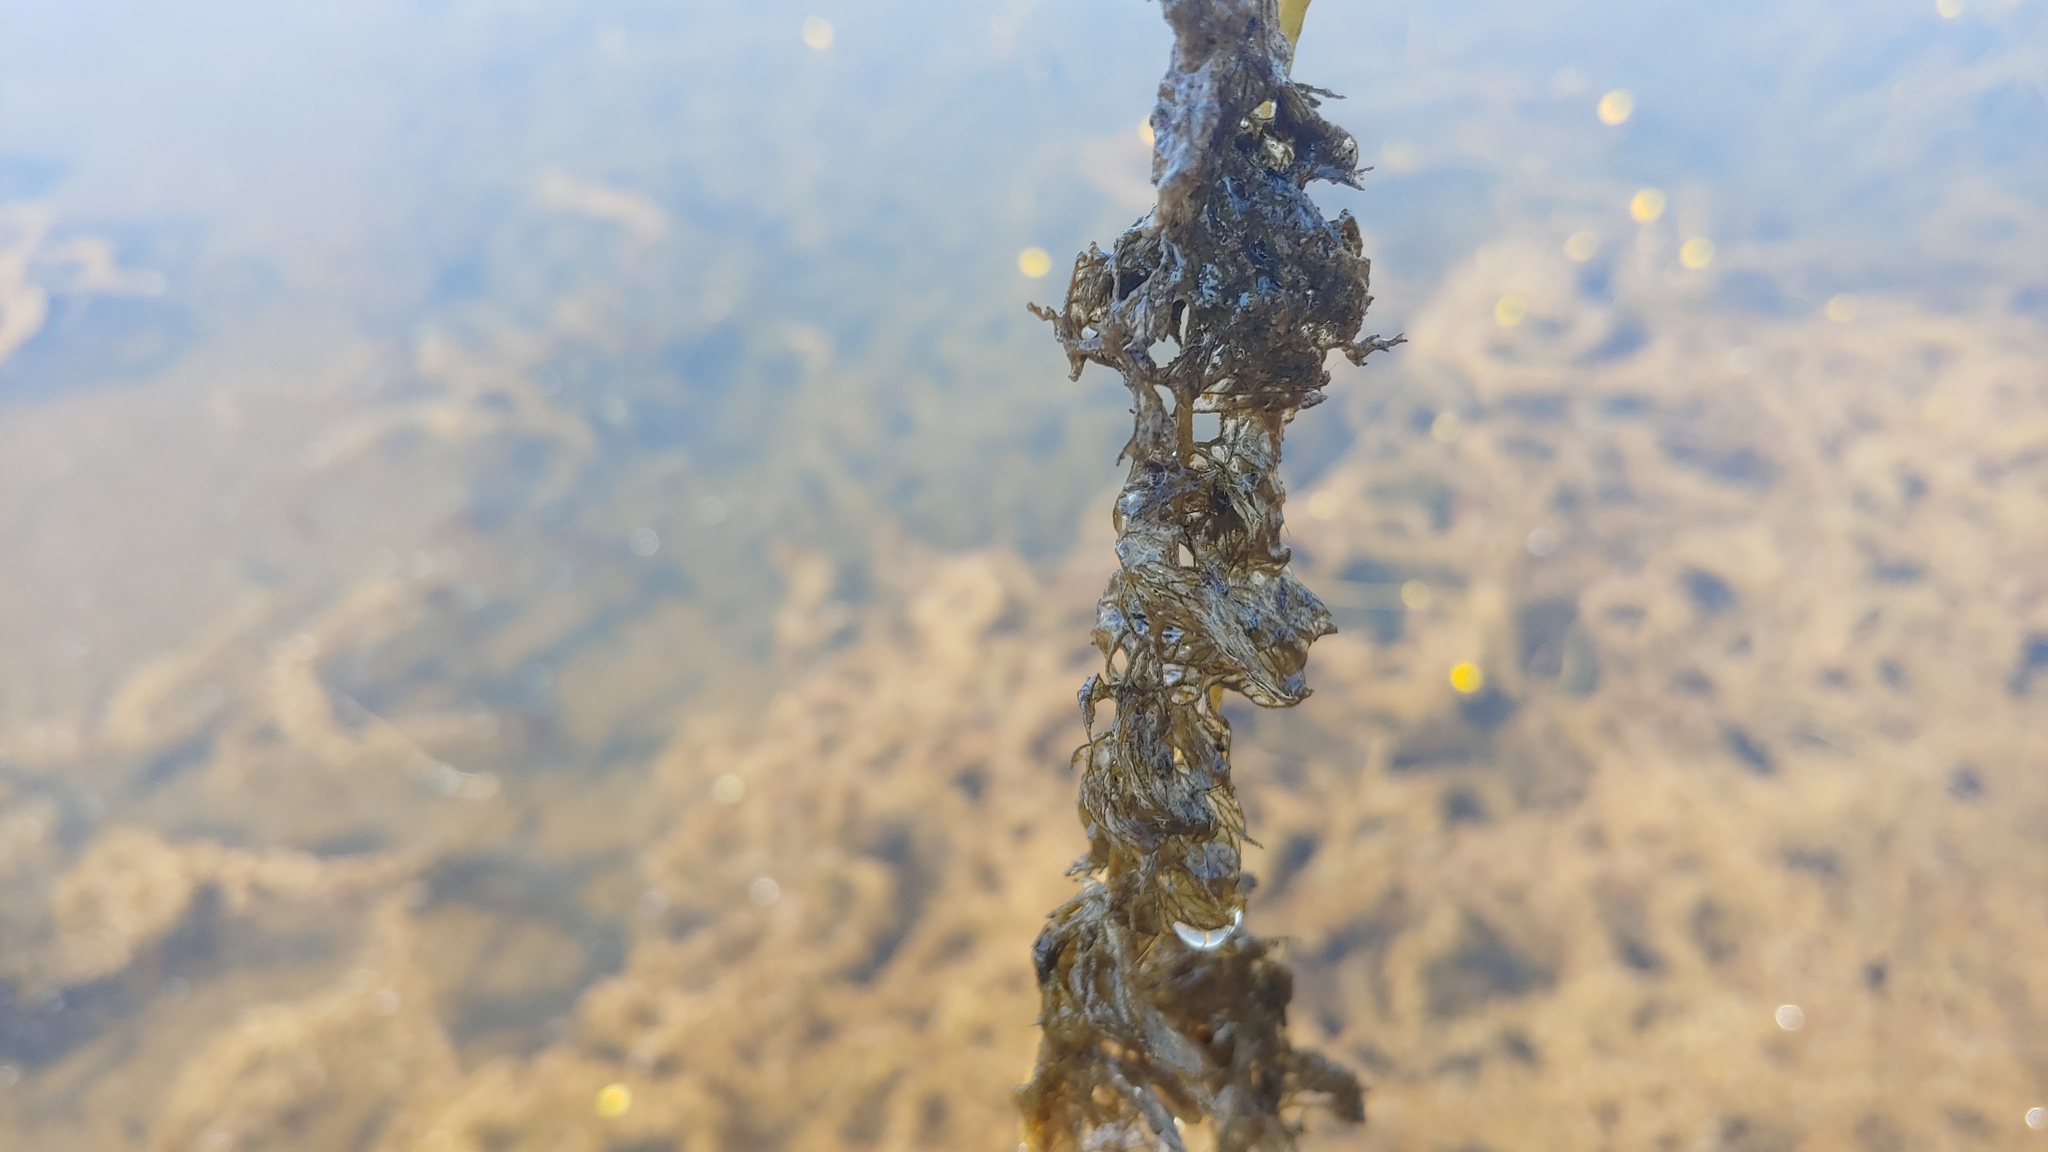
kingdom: Plantae
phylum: Tracheophyta
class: Magnoliopsida
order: Lamiales
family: Lentibulariaceae
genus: Utricularia
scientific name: Utricularia macrorhiza
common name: Common bladderwort
